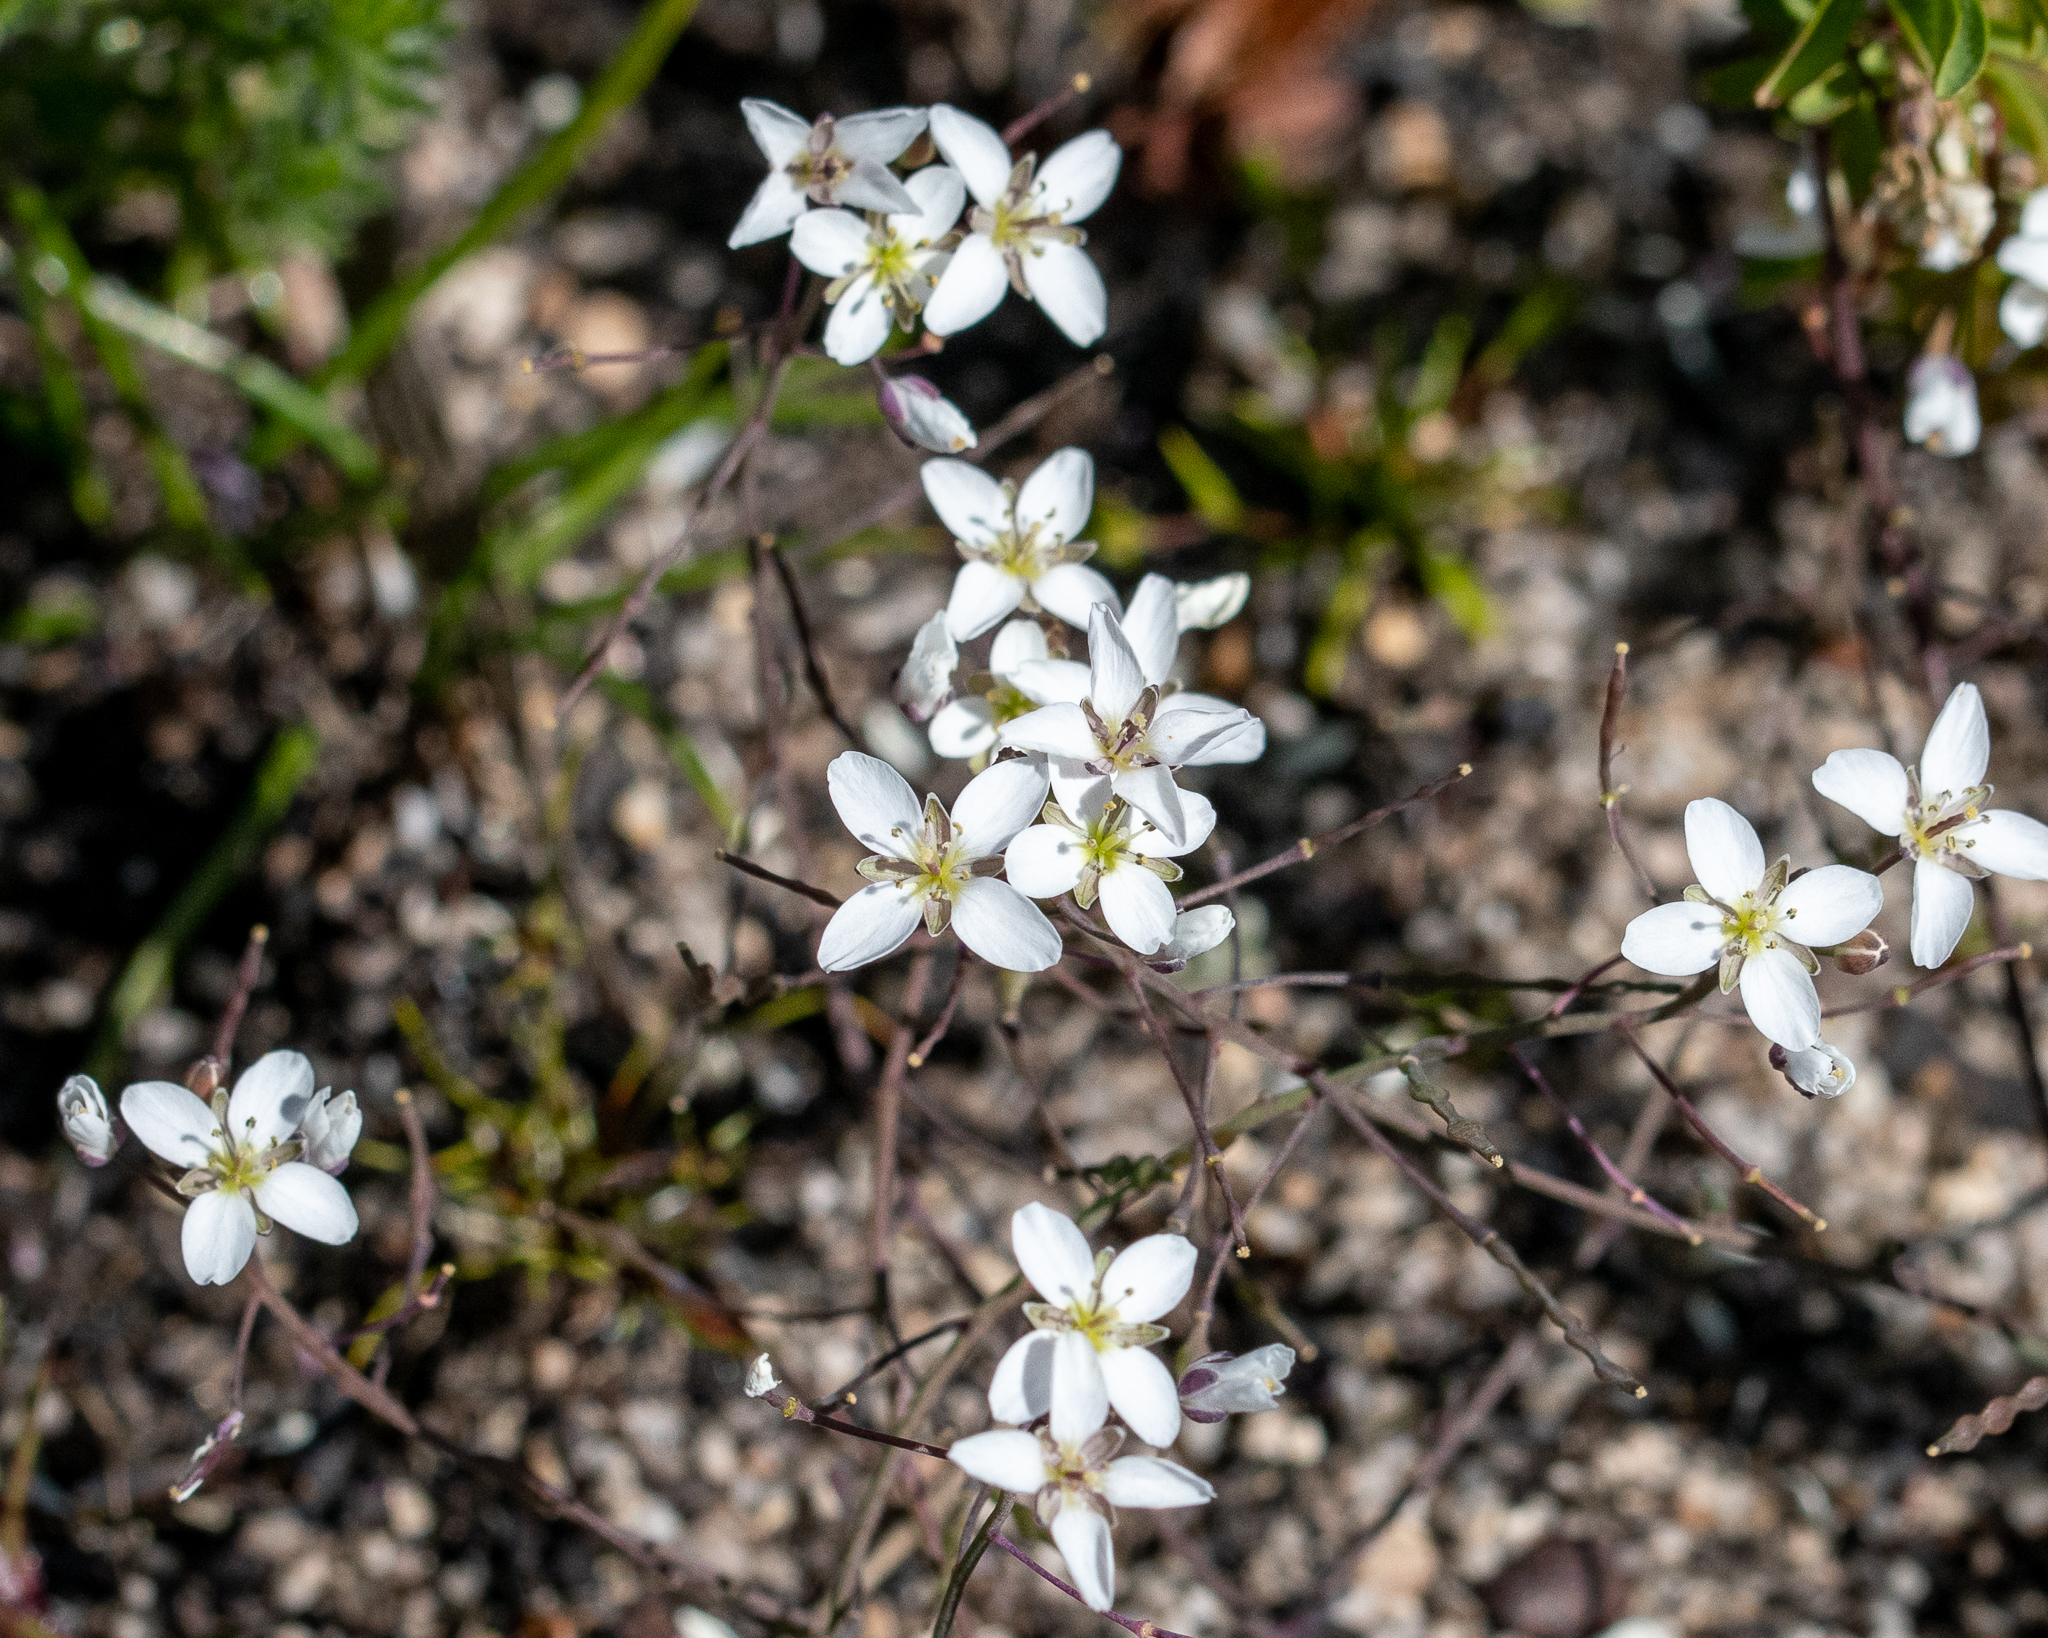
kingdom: Plantae
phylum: Tracheophyta
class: Magnoliopsida
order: Brassicales
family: Brassicaceae
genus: Heliophila
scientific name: Heliophila pusilla
